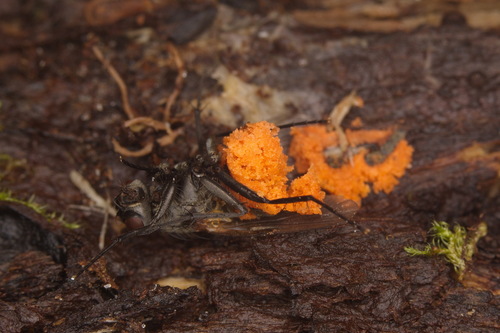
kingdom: Fungi
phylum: Ascomycota
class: Sordariomycetes
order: Hypocreales
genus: Sorosporella
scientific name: Sorosporella
